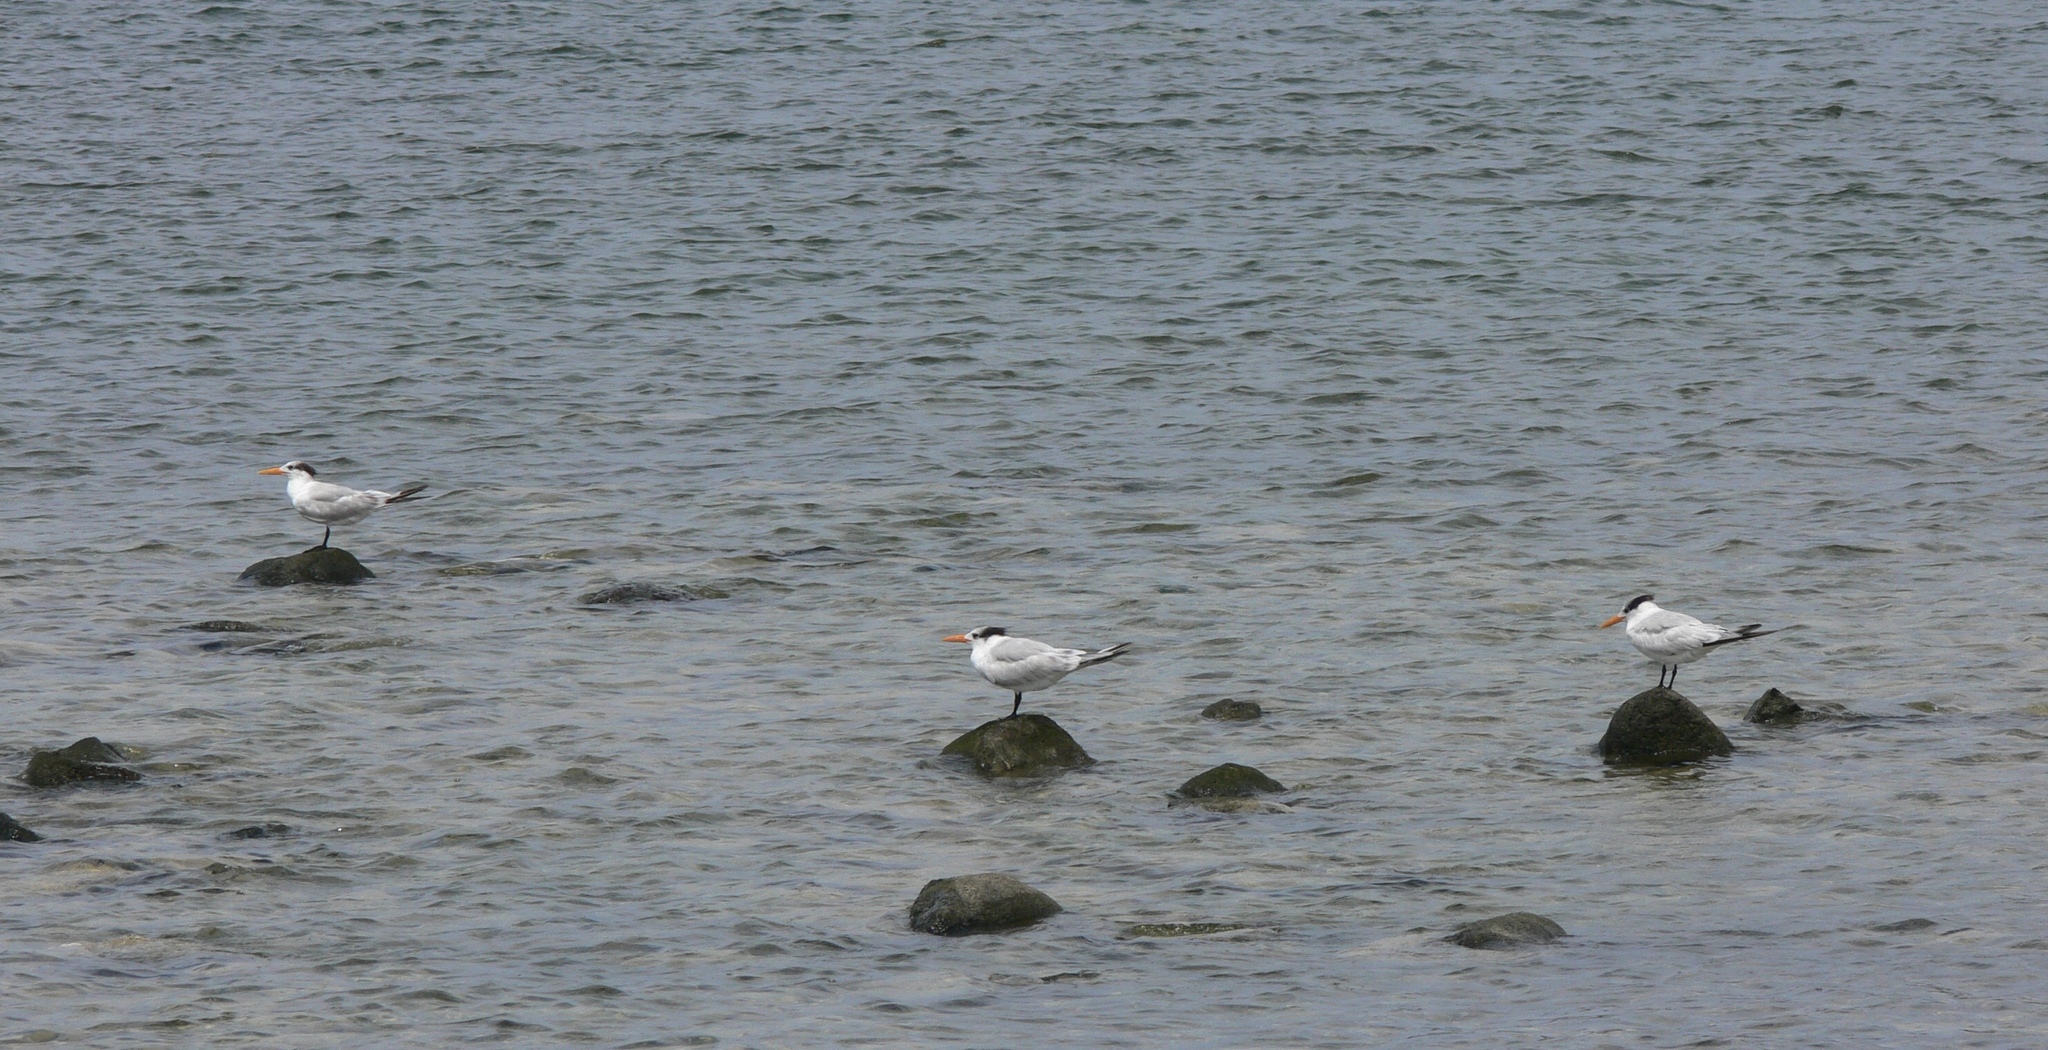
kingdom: Animalia
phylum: Chordata
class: Aves
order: Charadriiformes
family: Laridae
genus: Thalasseus
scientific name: Thalasseus maximus
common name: Royal tern
